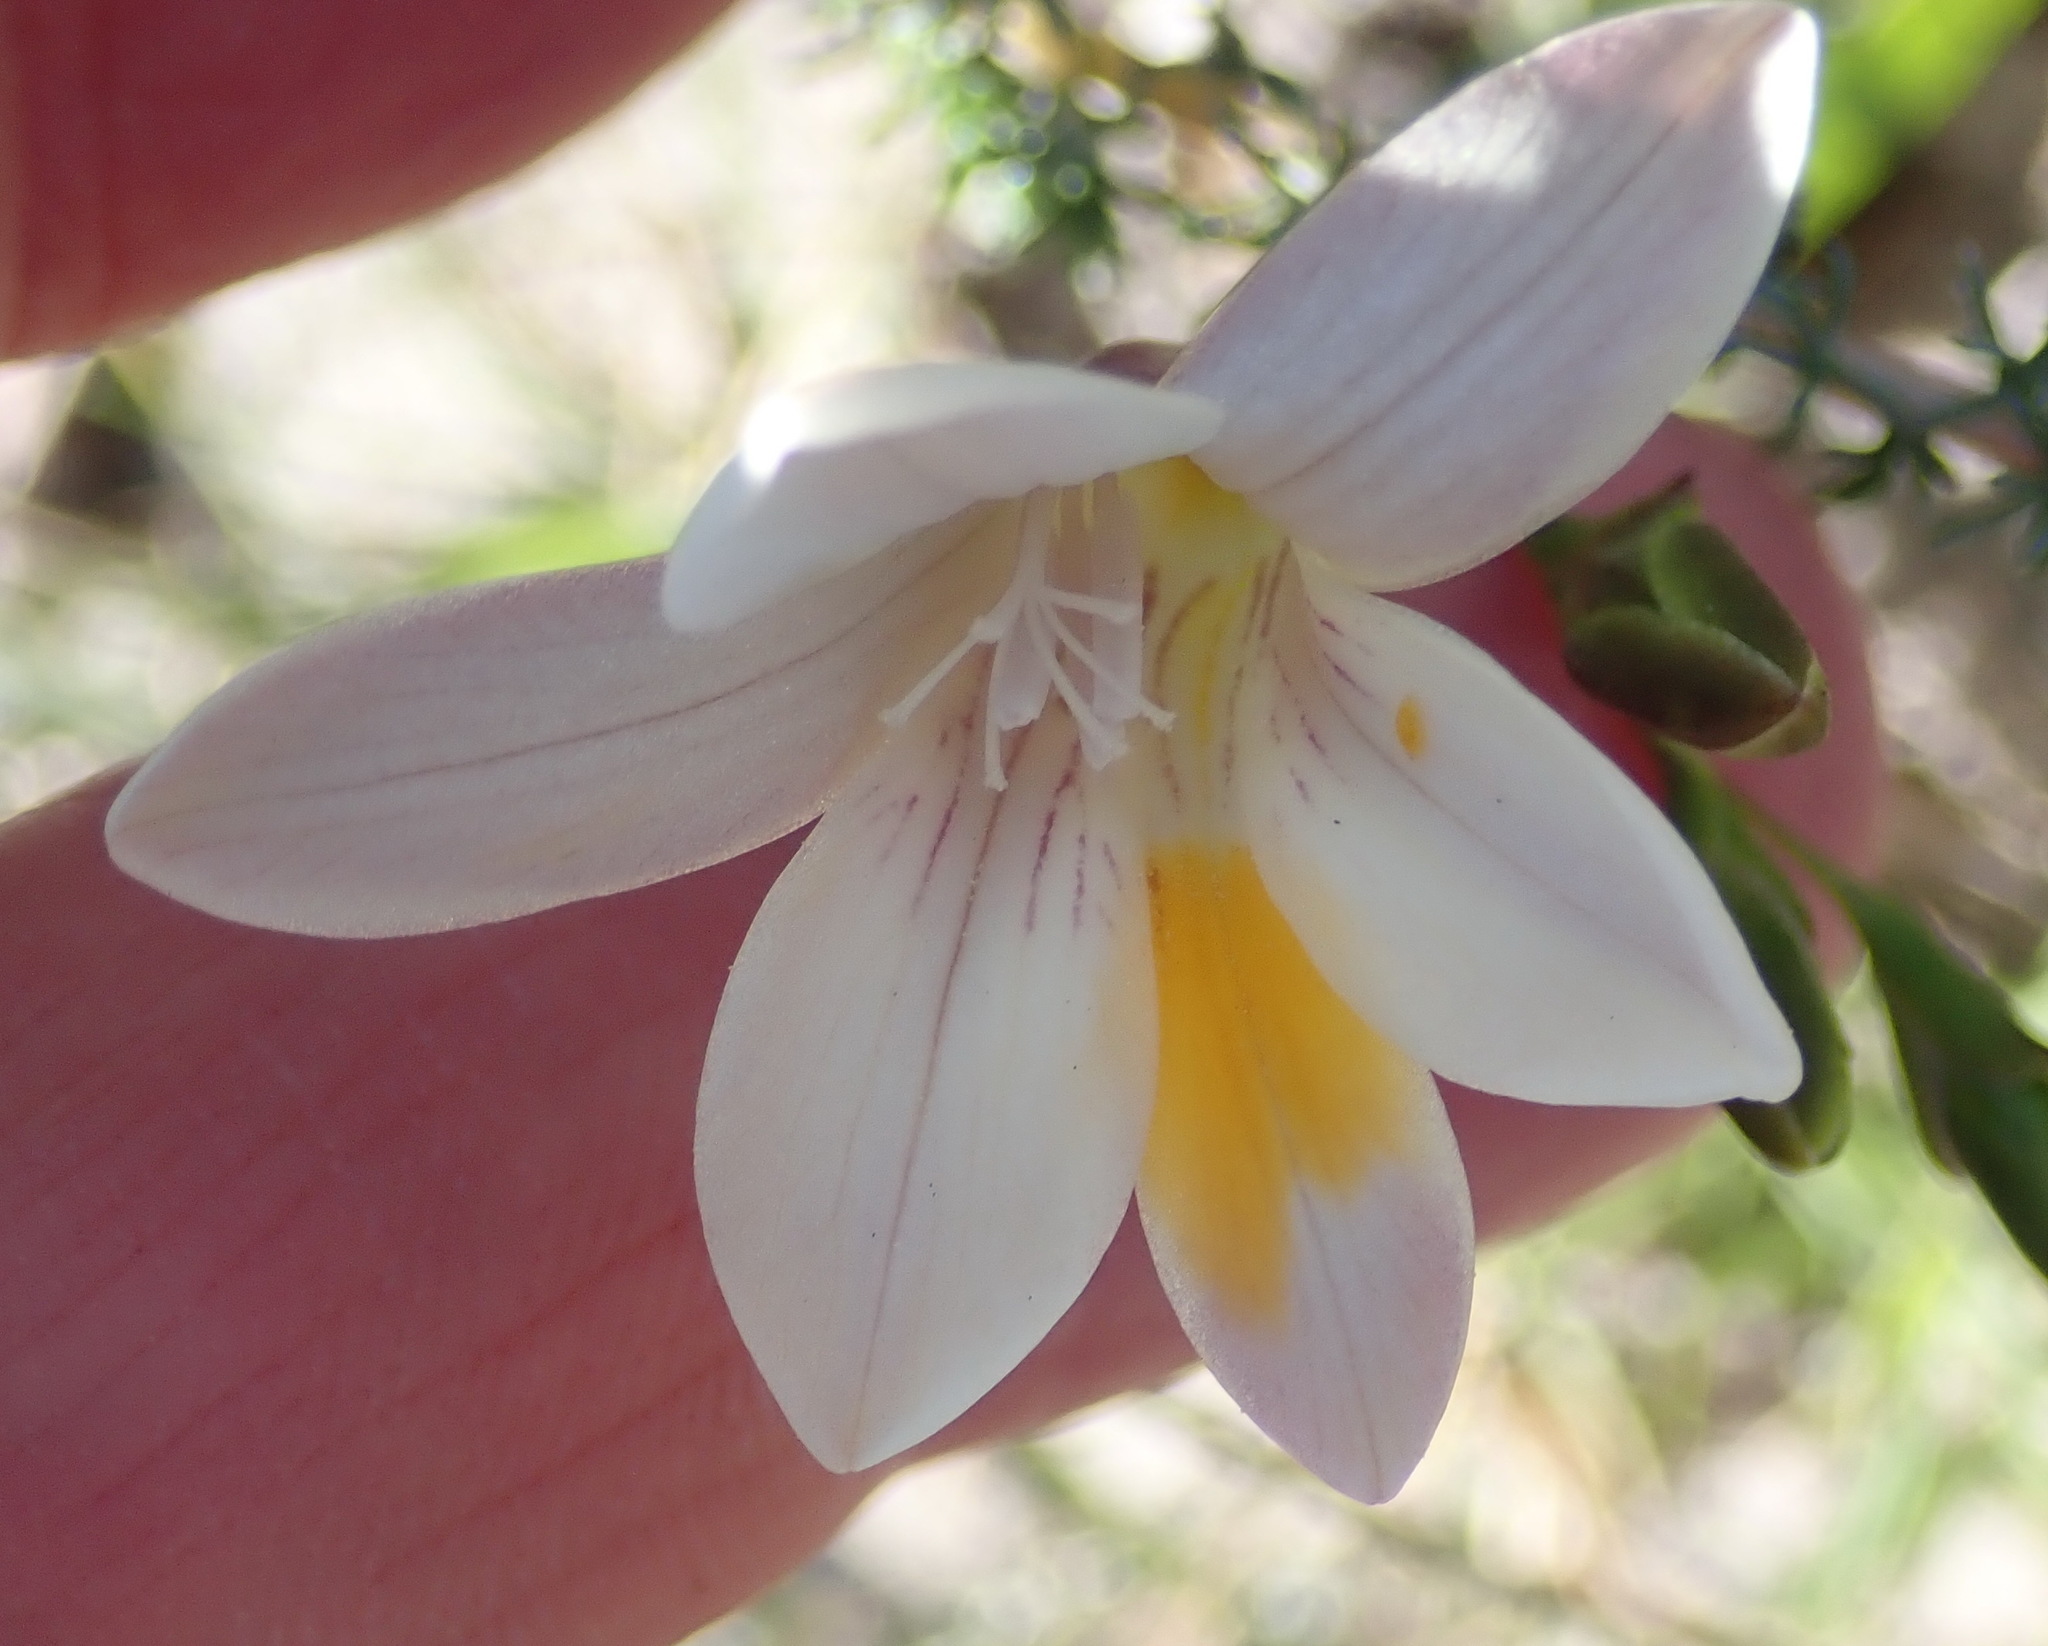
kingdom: Plantae
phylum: Tracheophyta
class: Liliopsida
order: Asparagales
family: Iridaceae
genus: Freesia
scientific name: Freesia leichtlinii
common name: Freesia
